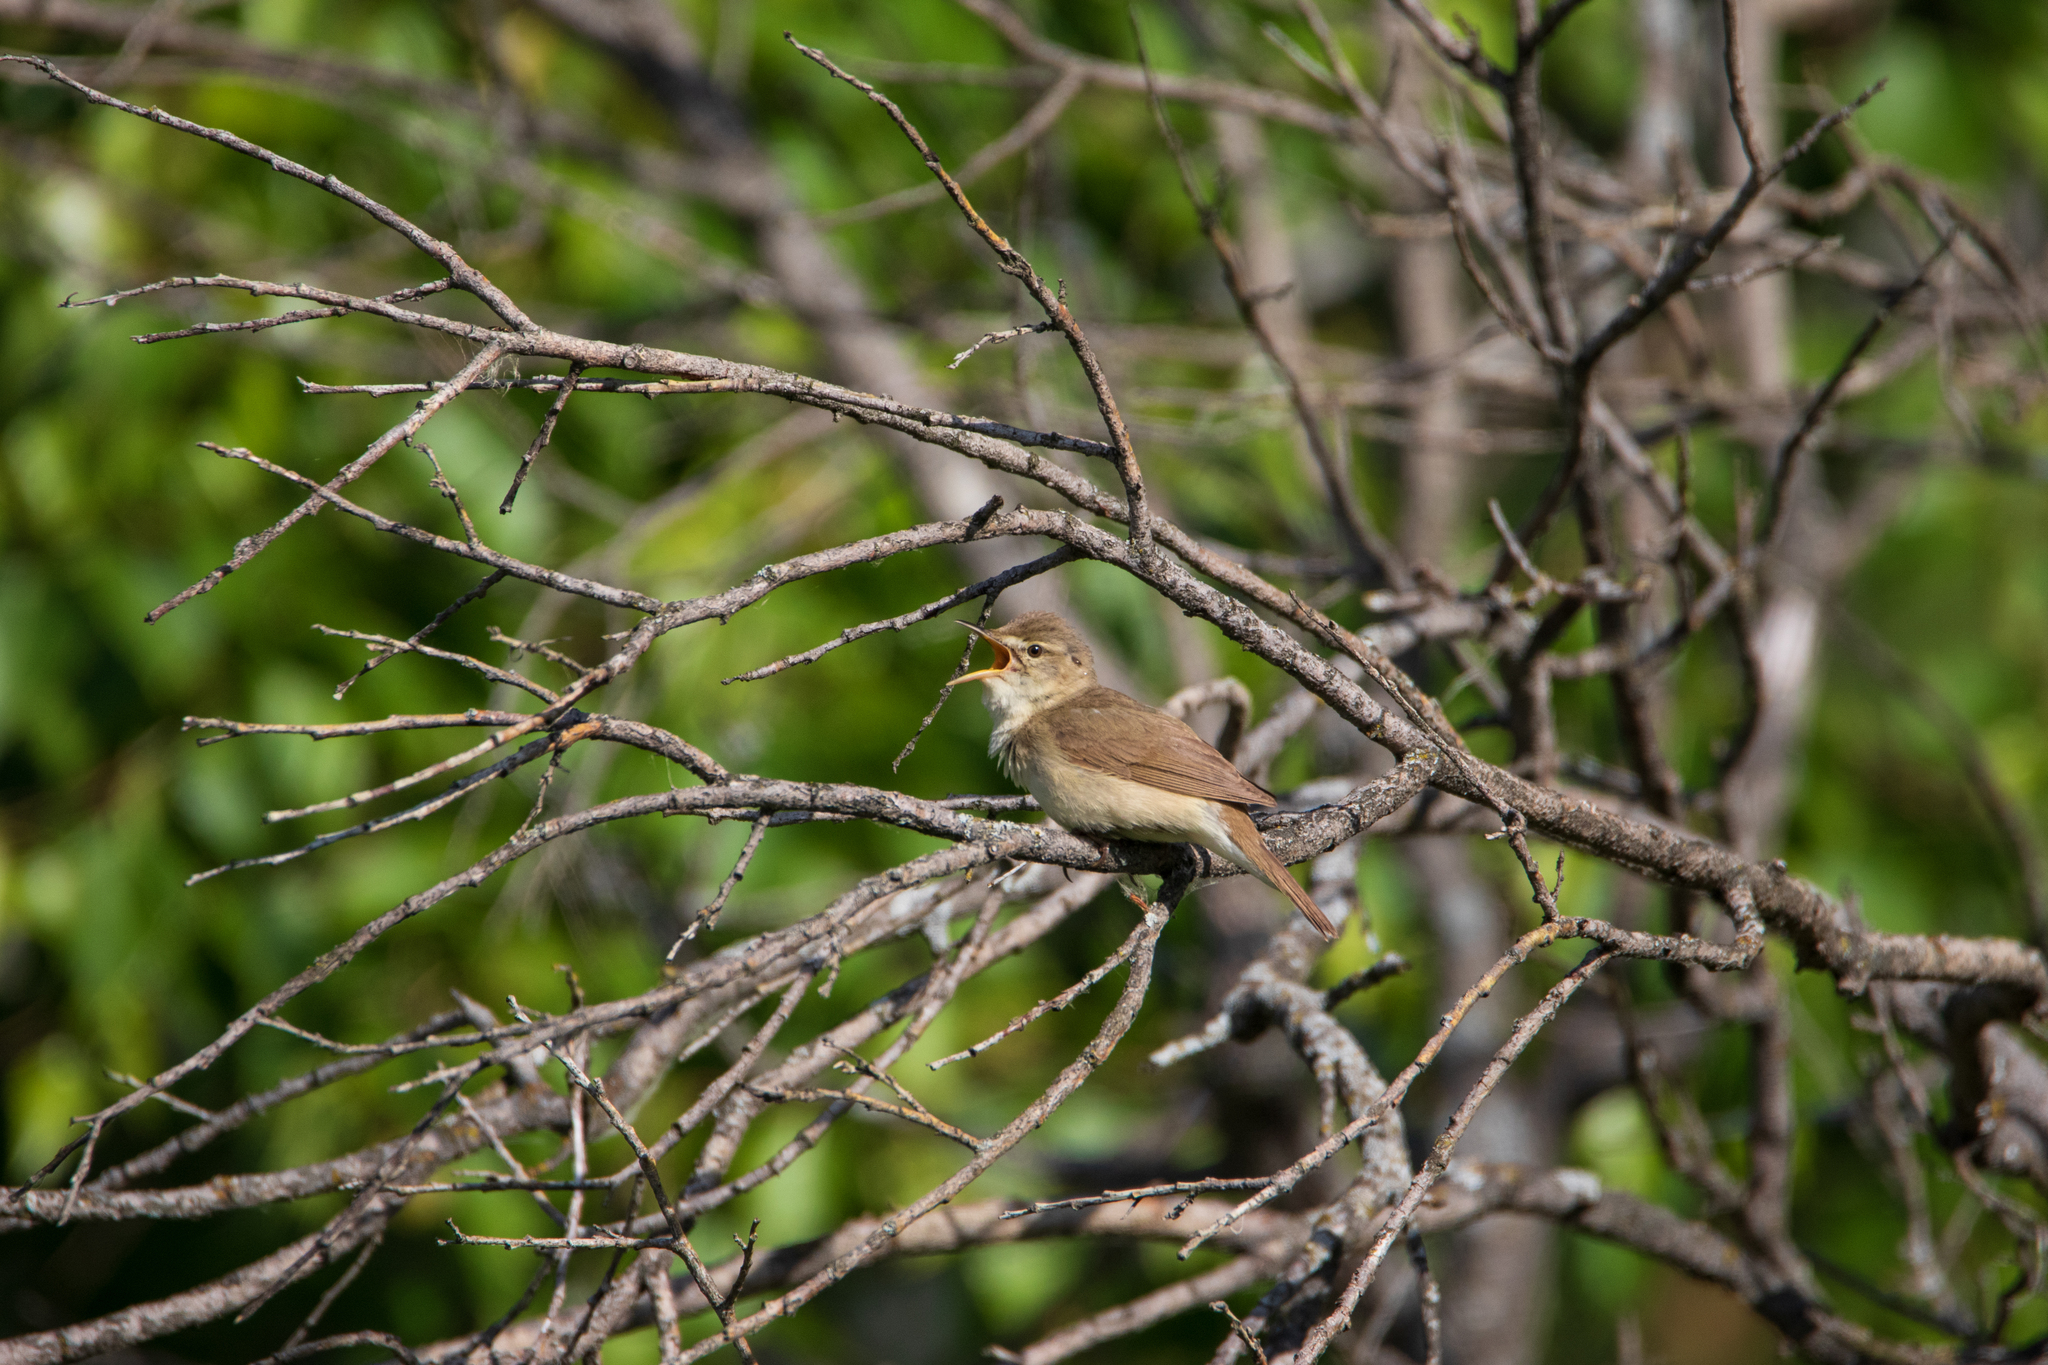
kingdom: Animalia
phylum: Chordata
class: Aves
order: Passeriformes
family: Acrocephalidae
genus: Acrocephalus
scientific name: Acrocephalus dumetorum
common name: Blyth's reed warbler
